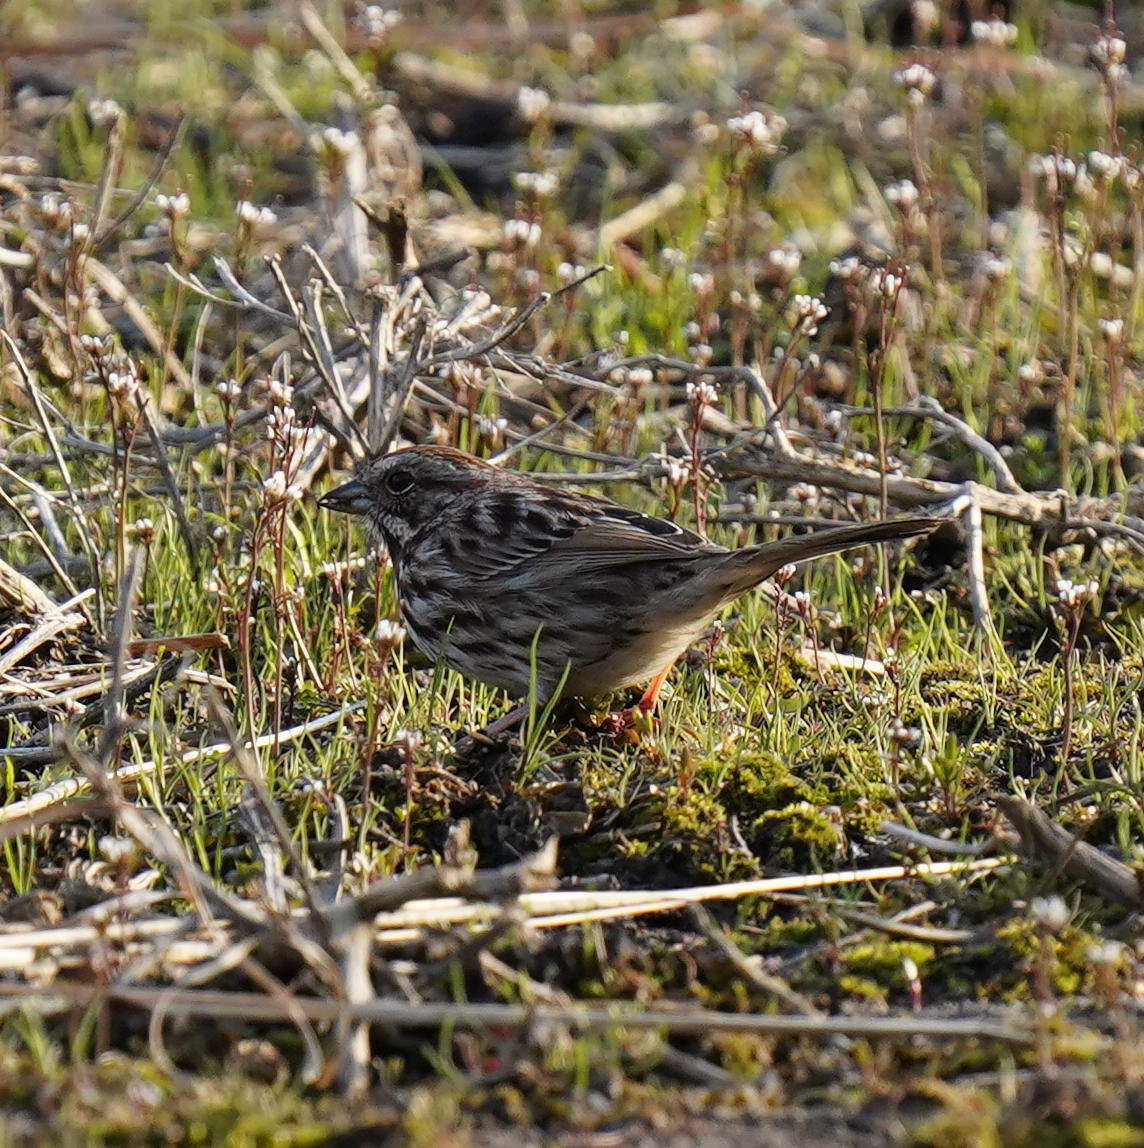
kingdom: Animalia
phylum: Chordata
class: Aves
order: Passeriformes
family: Passerellidae
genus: Melospiza
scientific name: Melospiza melodia
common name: Song sparrow
